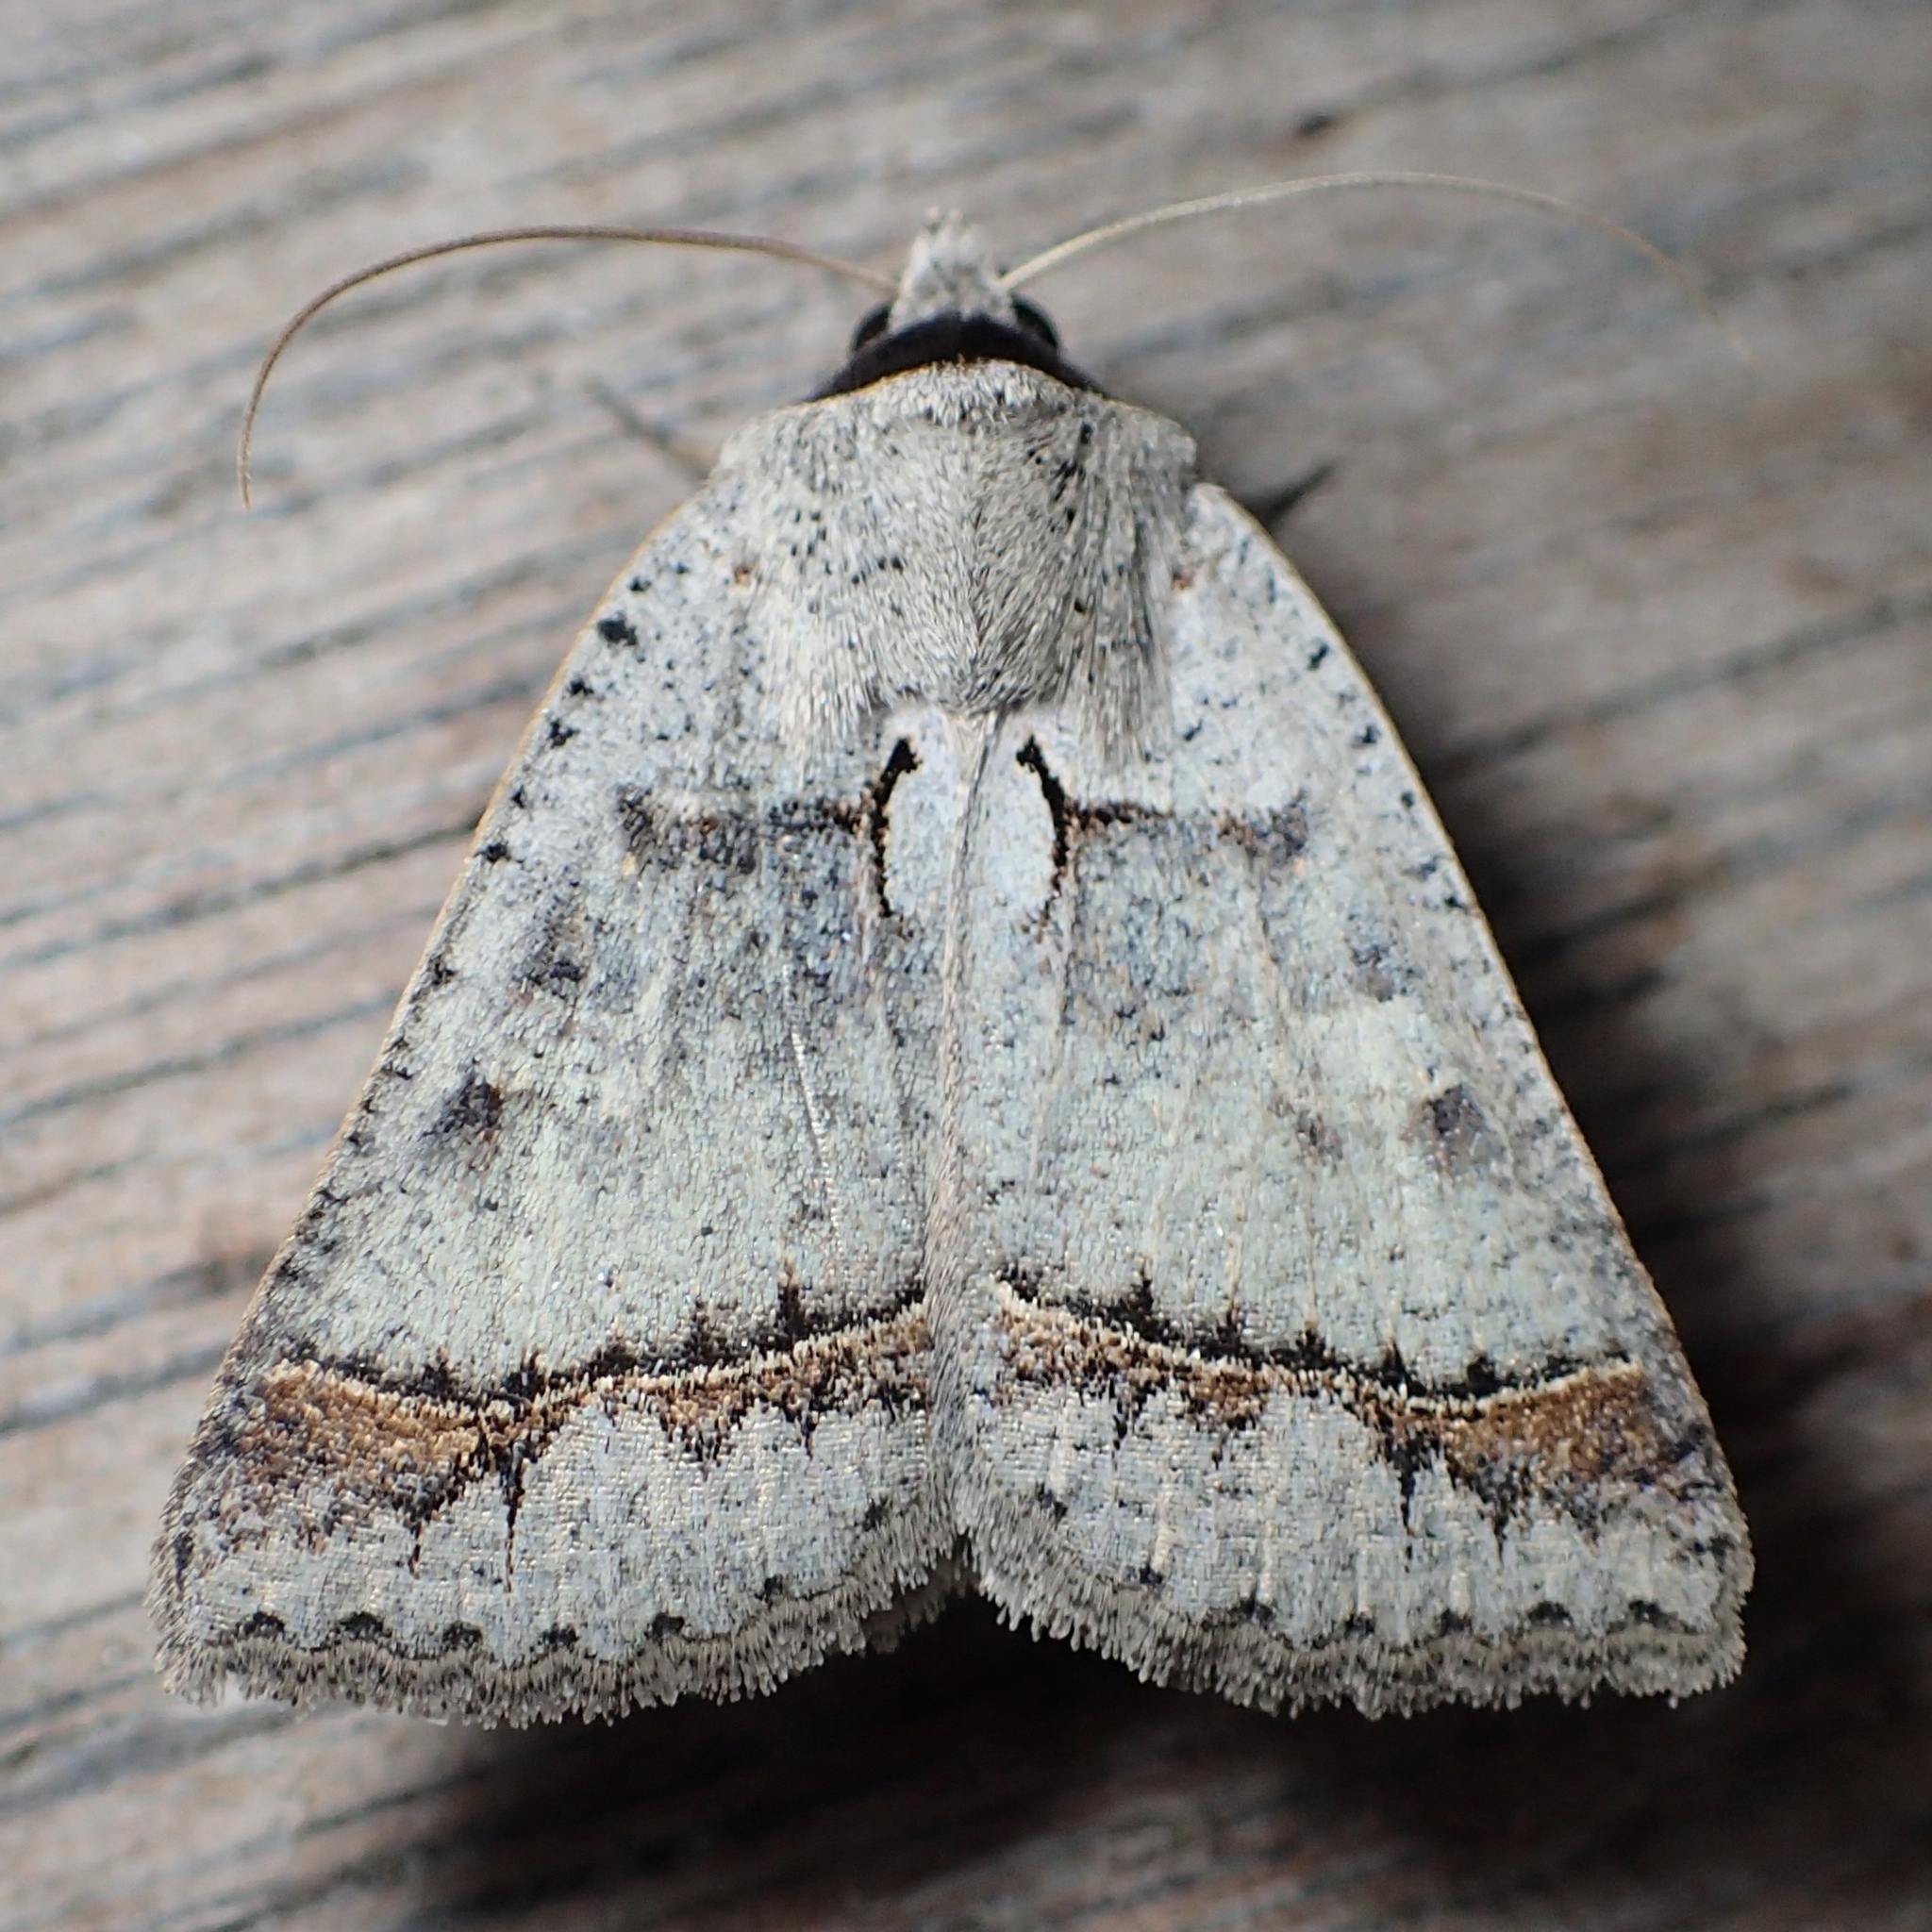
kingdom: Animalia
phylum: Arthropoda
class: Insecta
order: Lepidoptera
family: Erebidae
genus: Pantydia
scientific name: Pantydia sparsa
